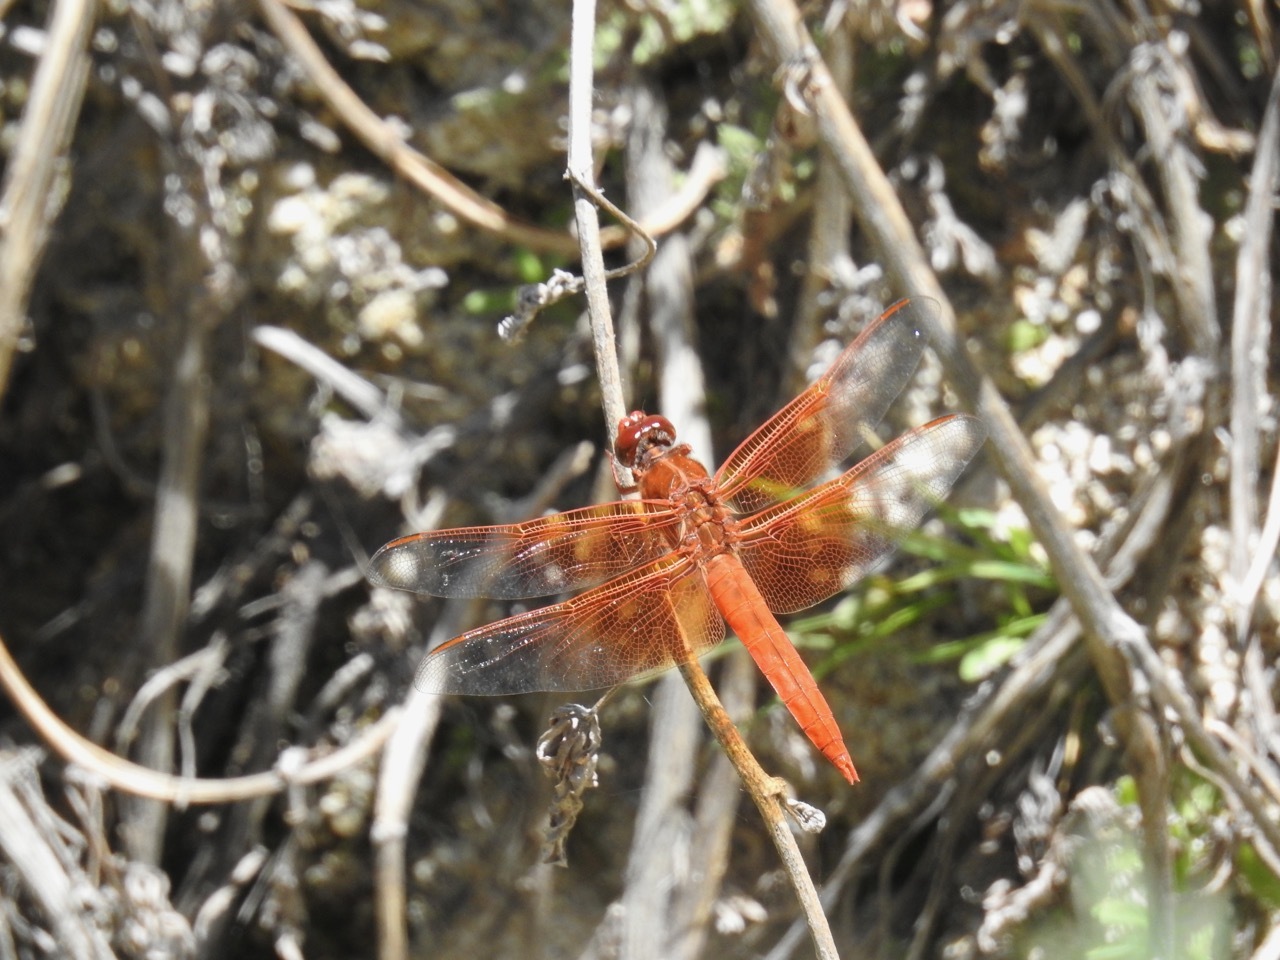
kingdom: Animalia
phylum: Arthropoda
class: Insecta
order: Odonata
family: Libellulidae
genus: Libellula
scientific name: Libellula saturata
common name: Flame skimmer
